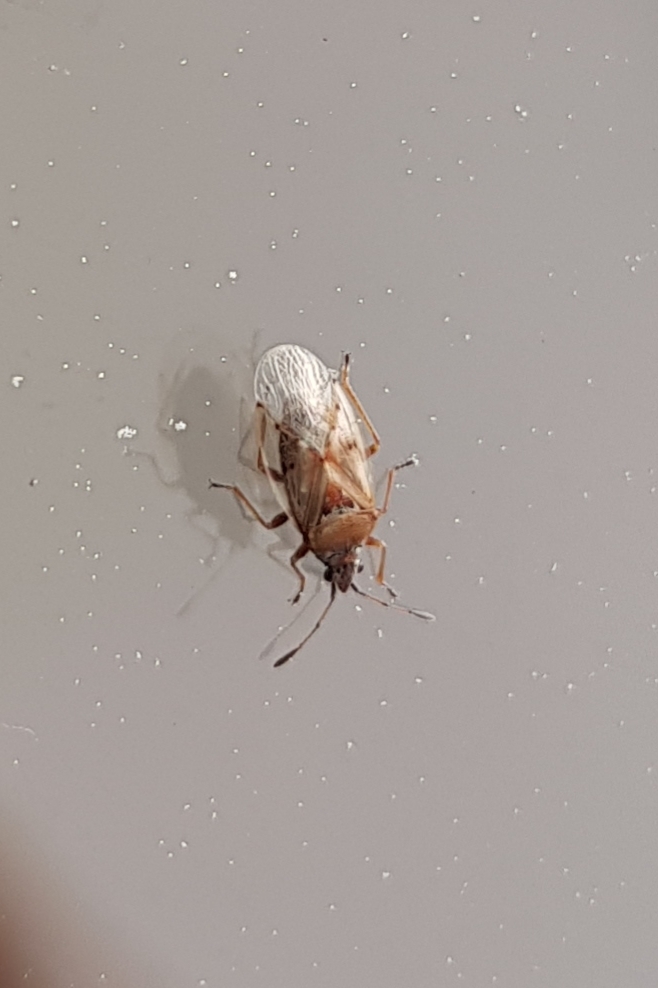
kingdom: Animalia
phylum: Arthropoda
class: Insecta
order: Hemiptera
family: Lygaeidae
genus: Kleidocerys
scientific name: Kleidocerys resedae
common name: Birch catkin bug
